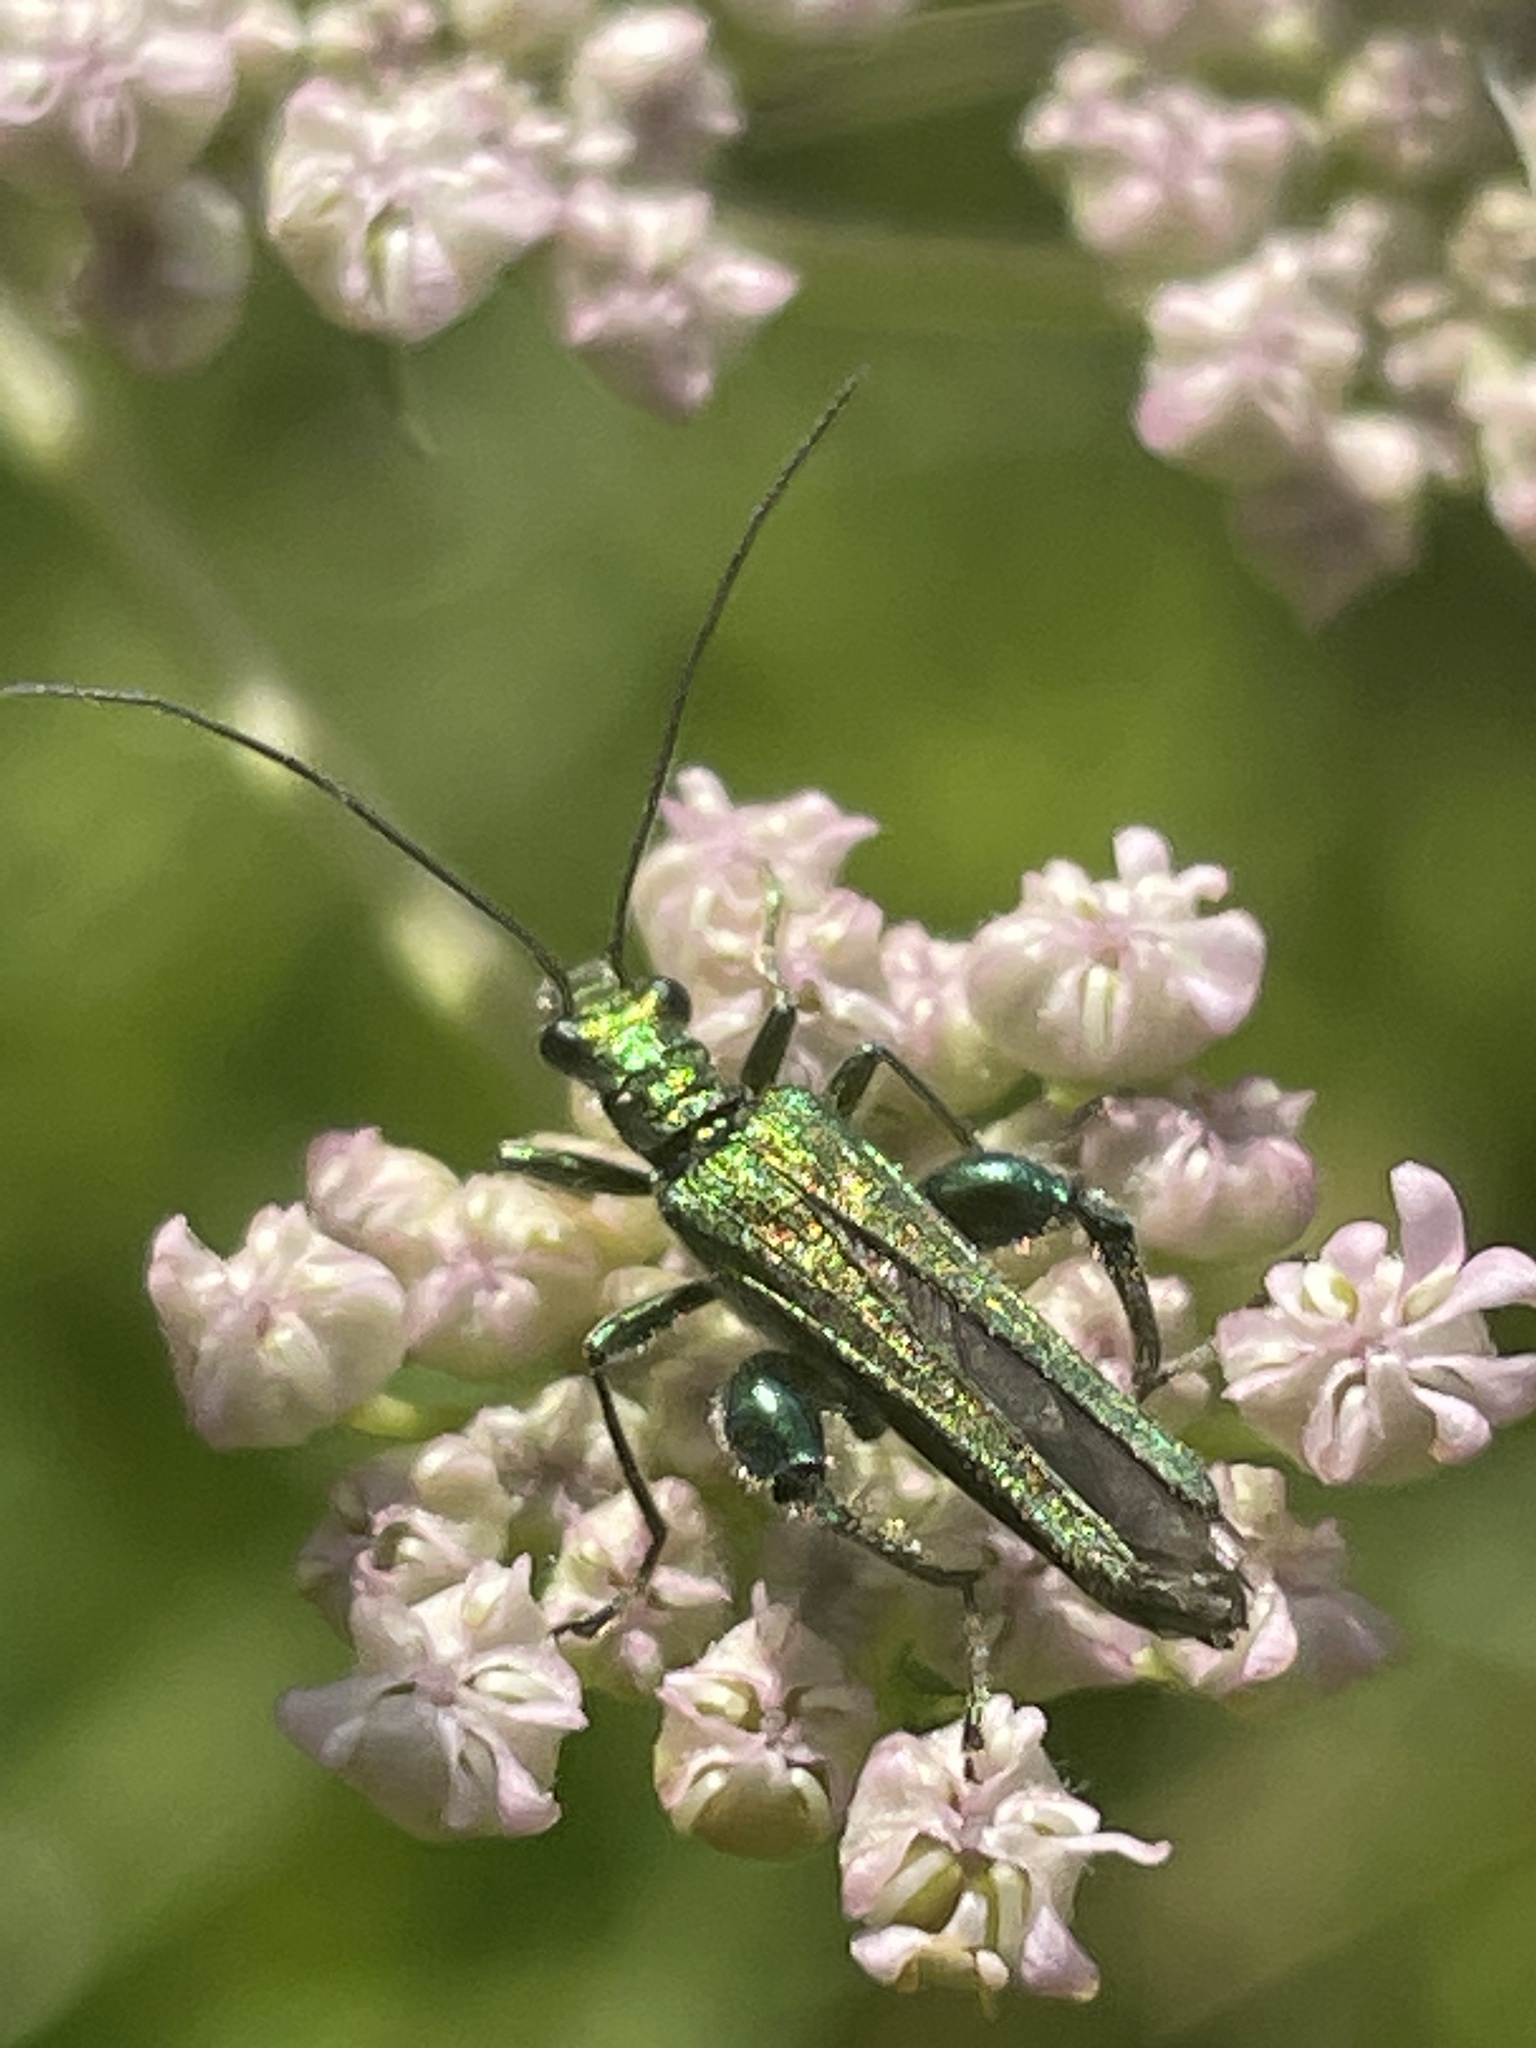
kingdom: Animalia
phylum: Arthropoda
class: Insecta
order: Coleoptera
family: Oedemeridae
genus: Oedemera
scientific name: Oedemera nobilis
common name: Swollen-thighed beetle
